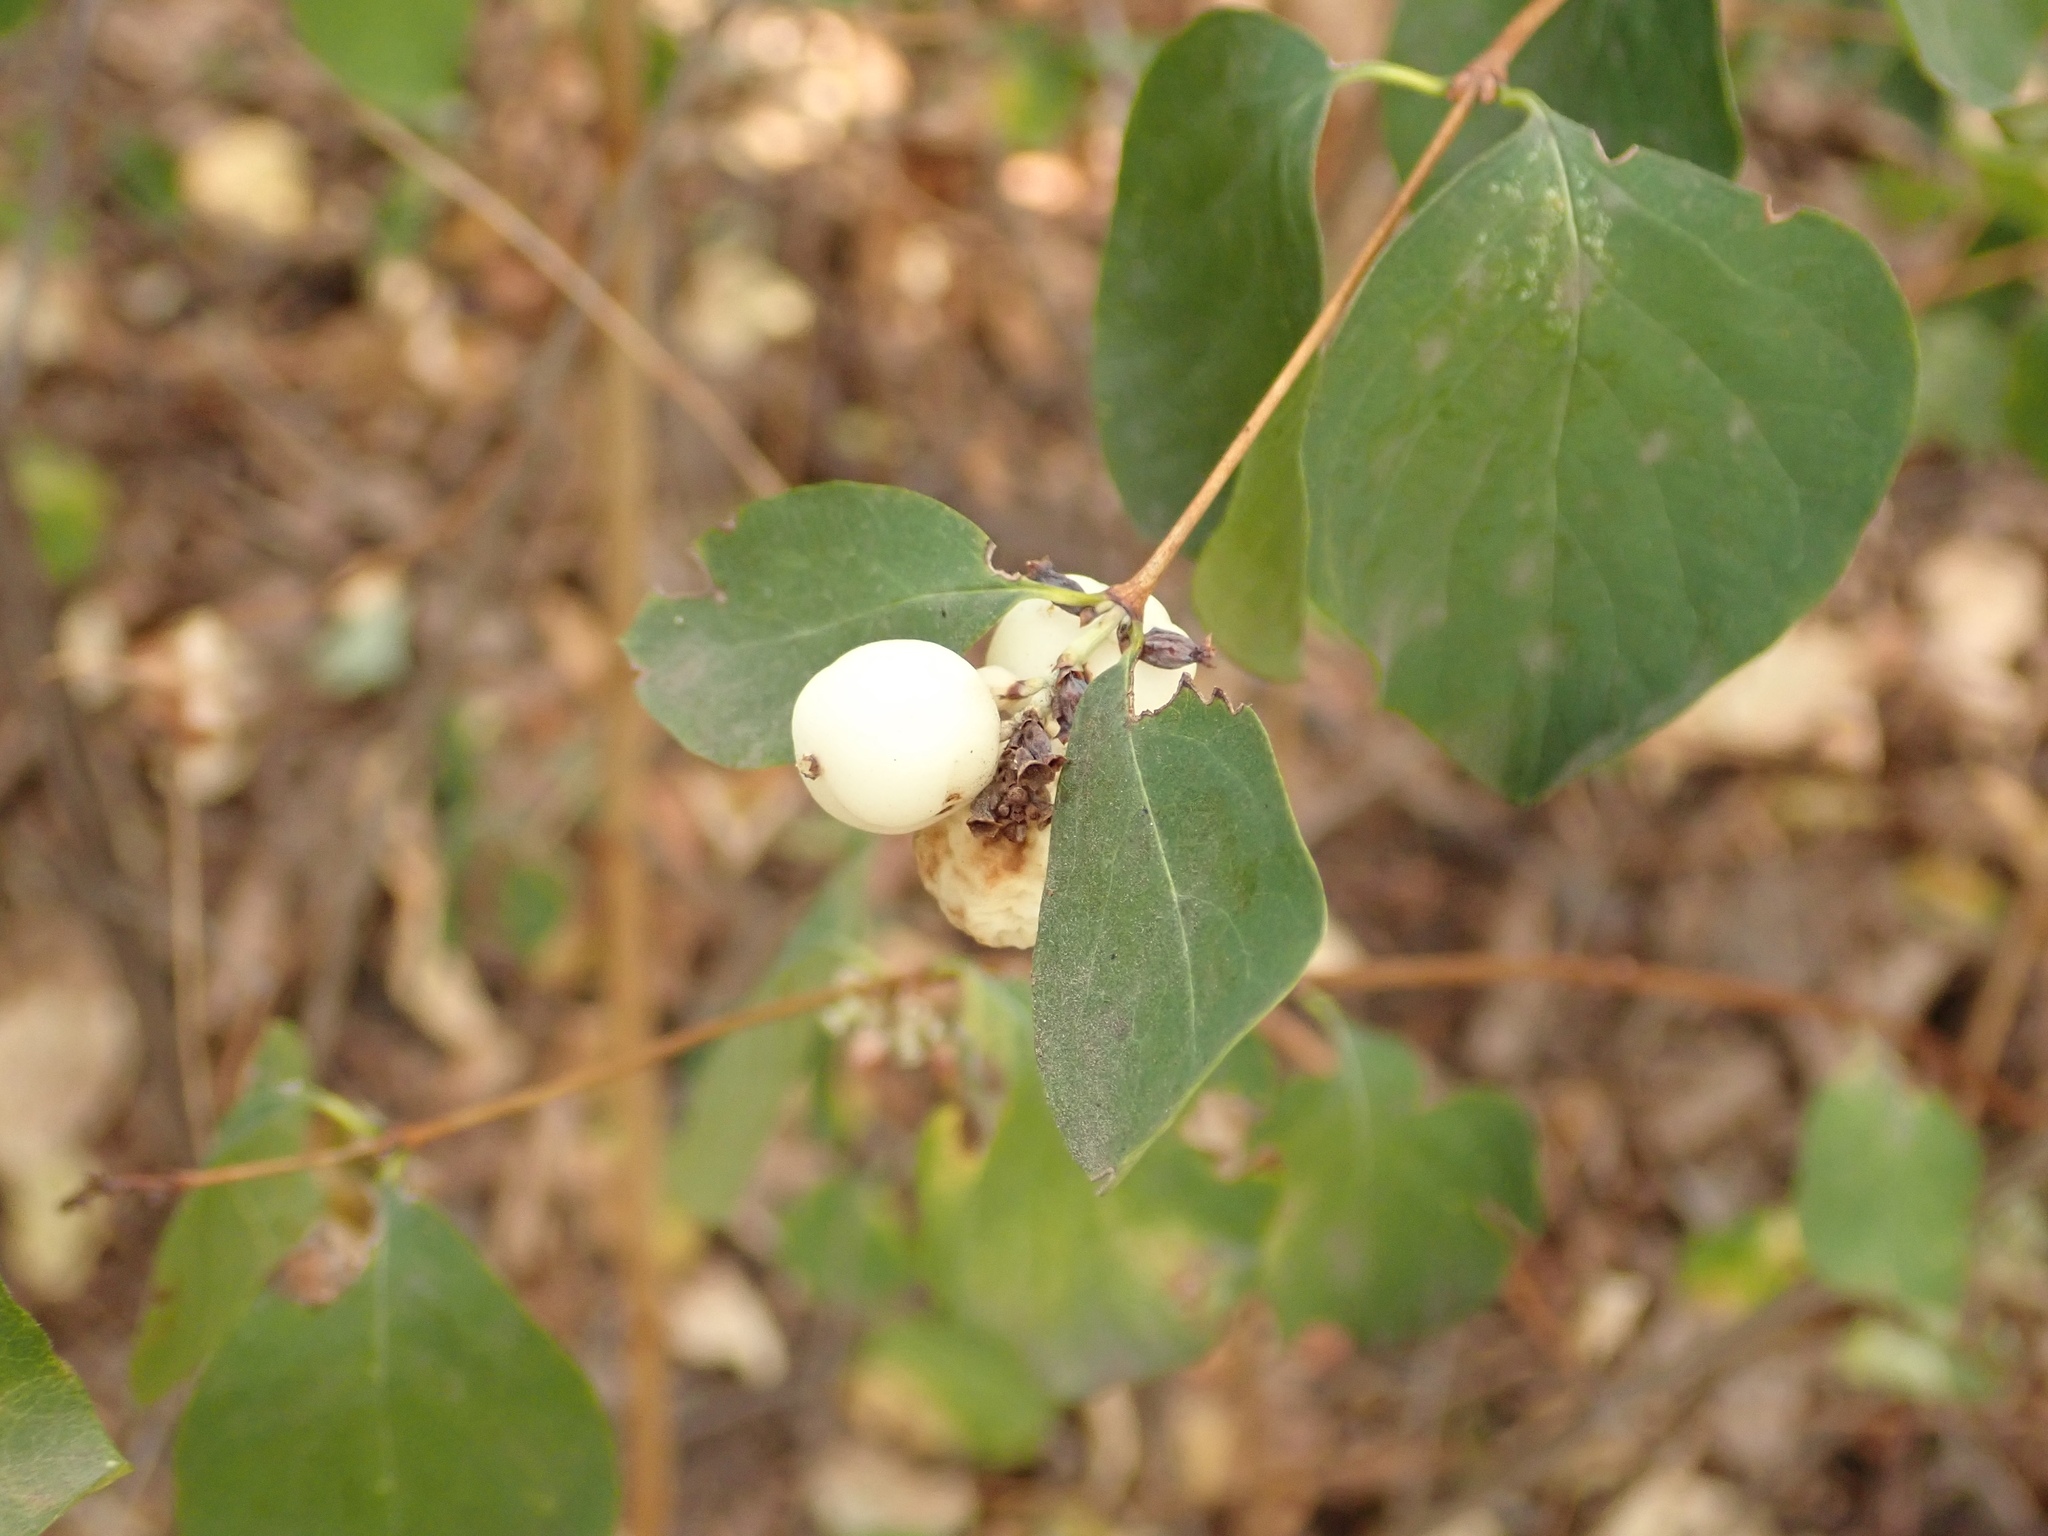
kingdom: Plantae
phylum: Tracheophyta
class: Magnoliopsida
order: Dipsacales
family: Caprifoliaceae
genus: Symphoricarpos
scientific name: Symphoricarpos albus
